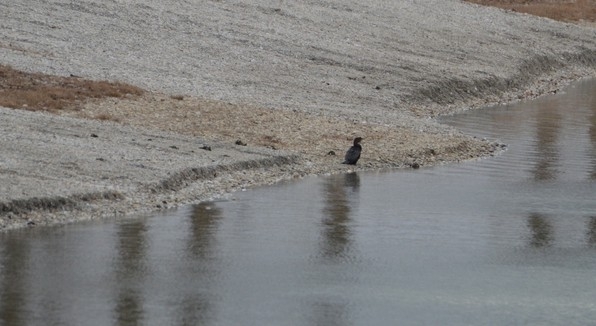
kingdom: Animalia
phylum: Chordata
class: Aves
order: Suliformes
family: Phalacrocoracidae
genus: Microcarbo
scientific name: Microcarbo pygmaeus
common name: Pygmy cormorant
